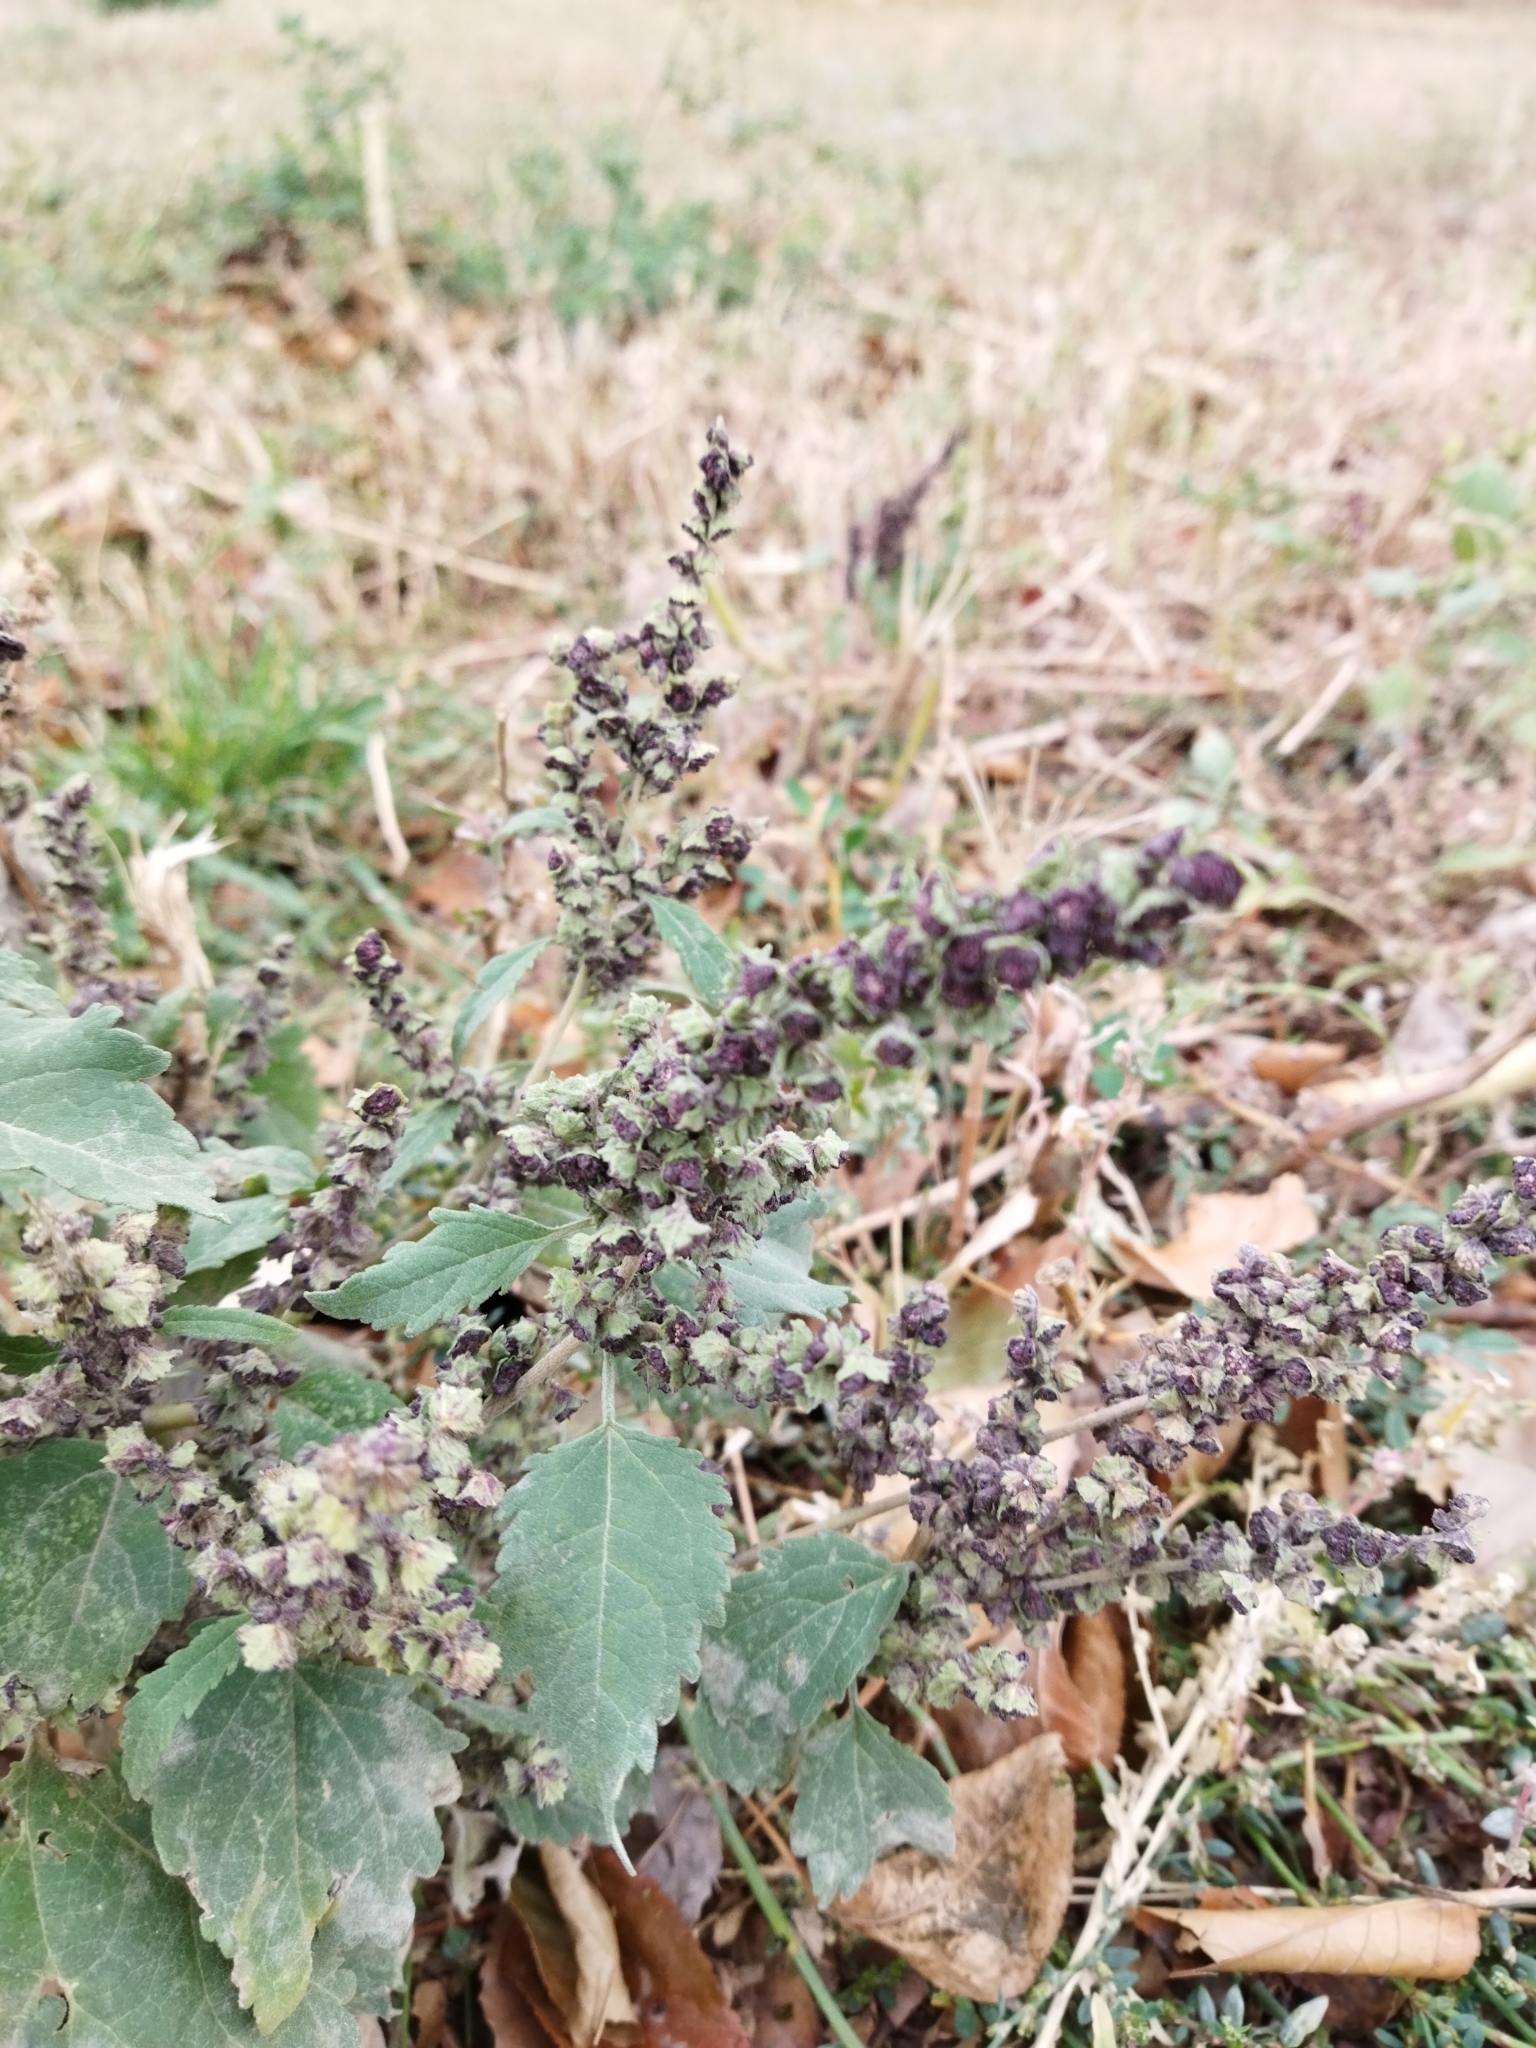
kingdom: Plantae
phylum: Tracheophyta
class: Magnoliopsida
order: Asterales
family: Asteraceae
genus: Cyclachaena
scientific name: Cyclachaena xanthiifolia
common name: Giant sumpweed
